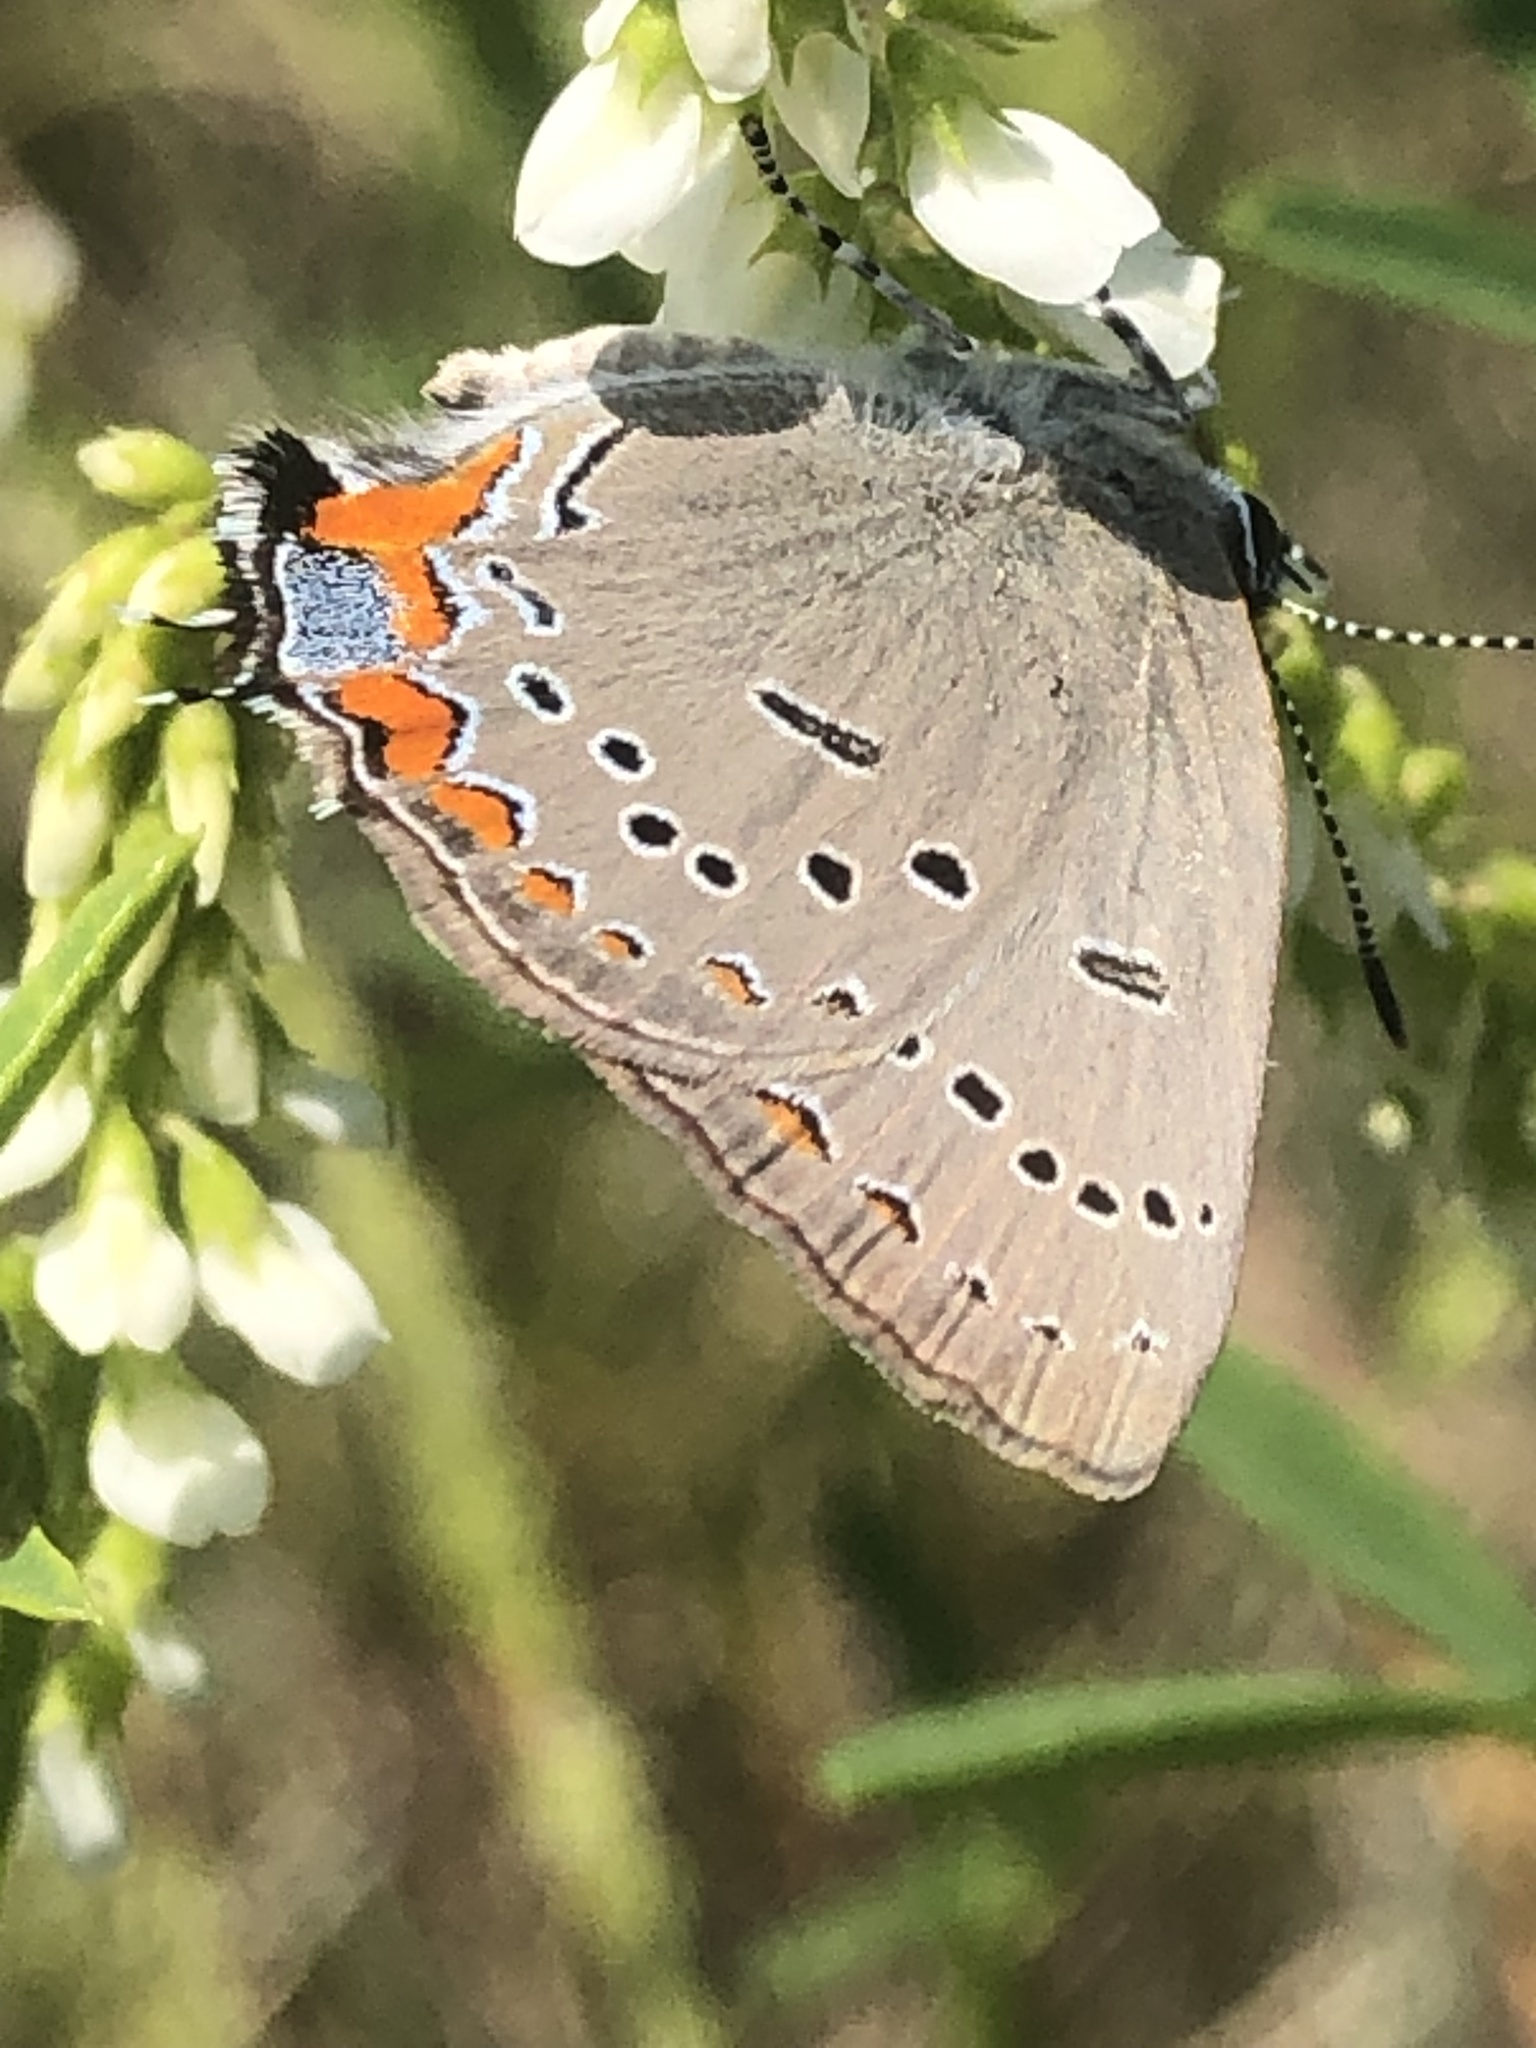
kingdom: Animalia
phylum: Arthropoda
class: Insecta
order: Lepidoptera
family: Lycaenidae
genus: Strymon
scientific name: Strymon acadica
